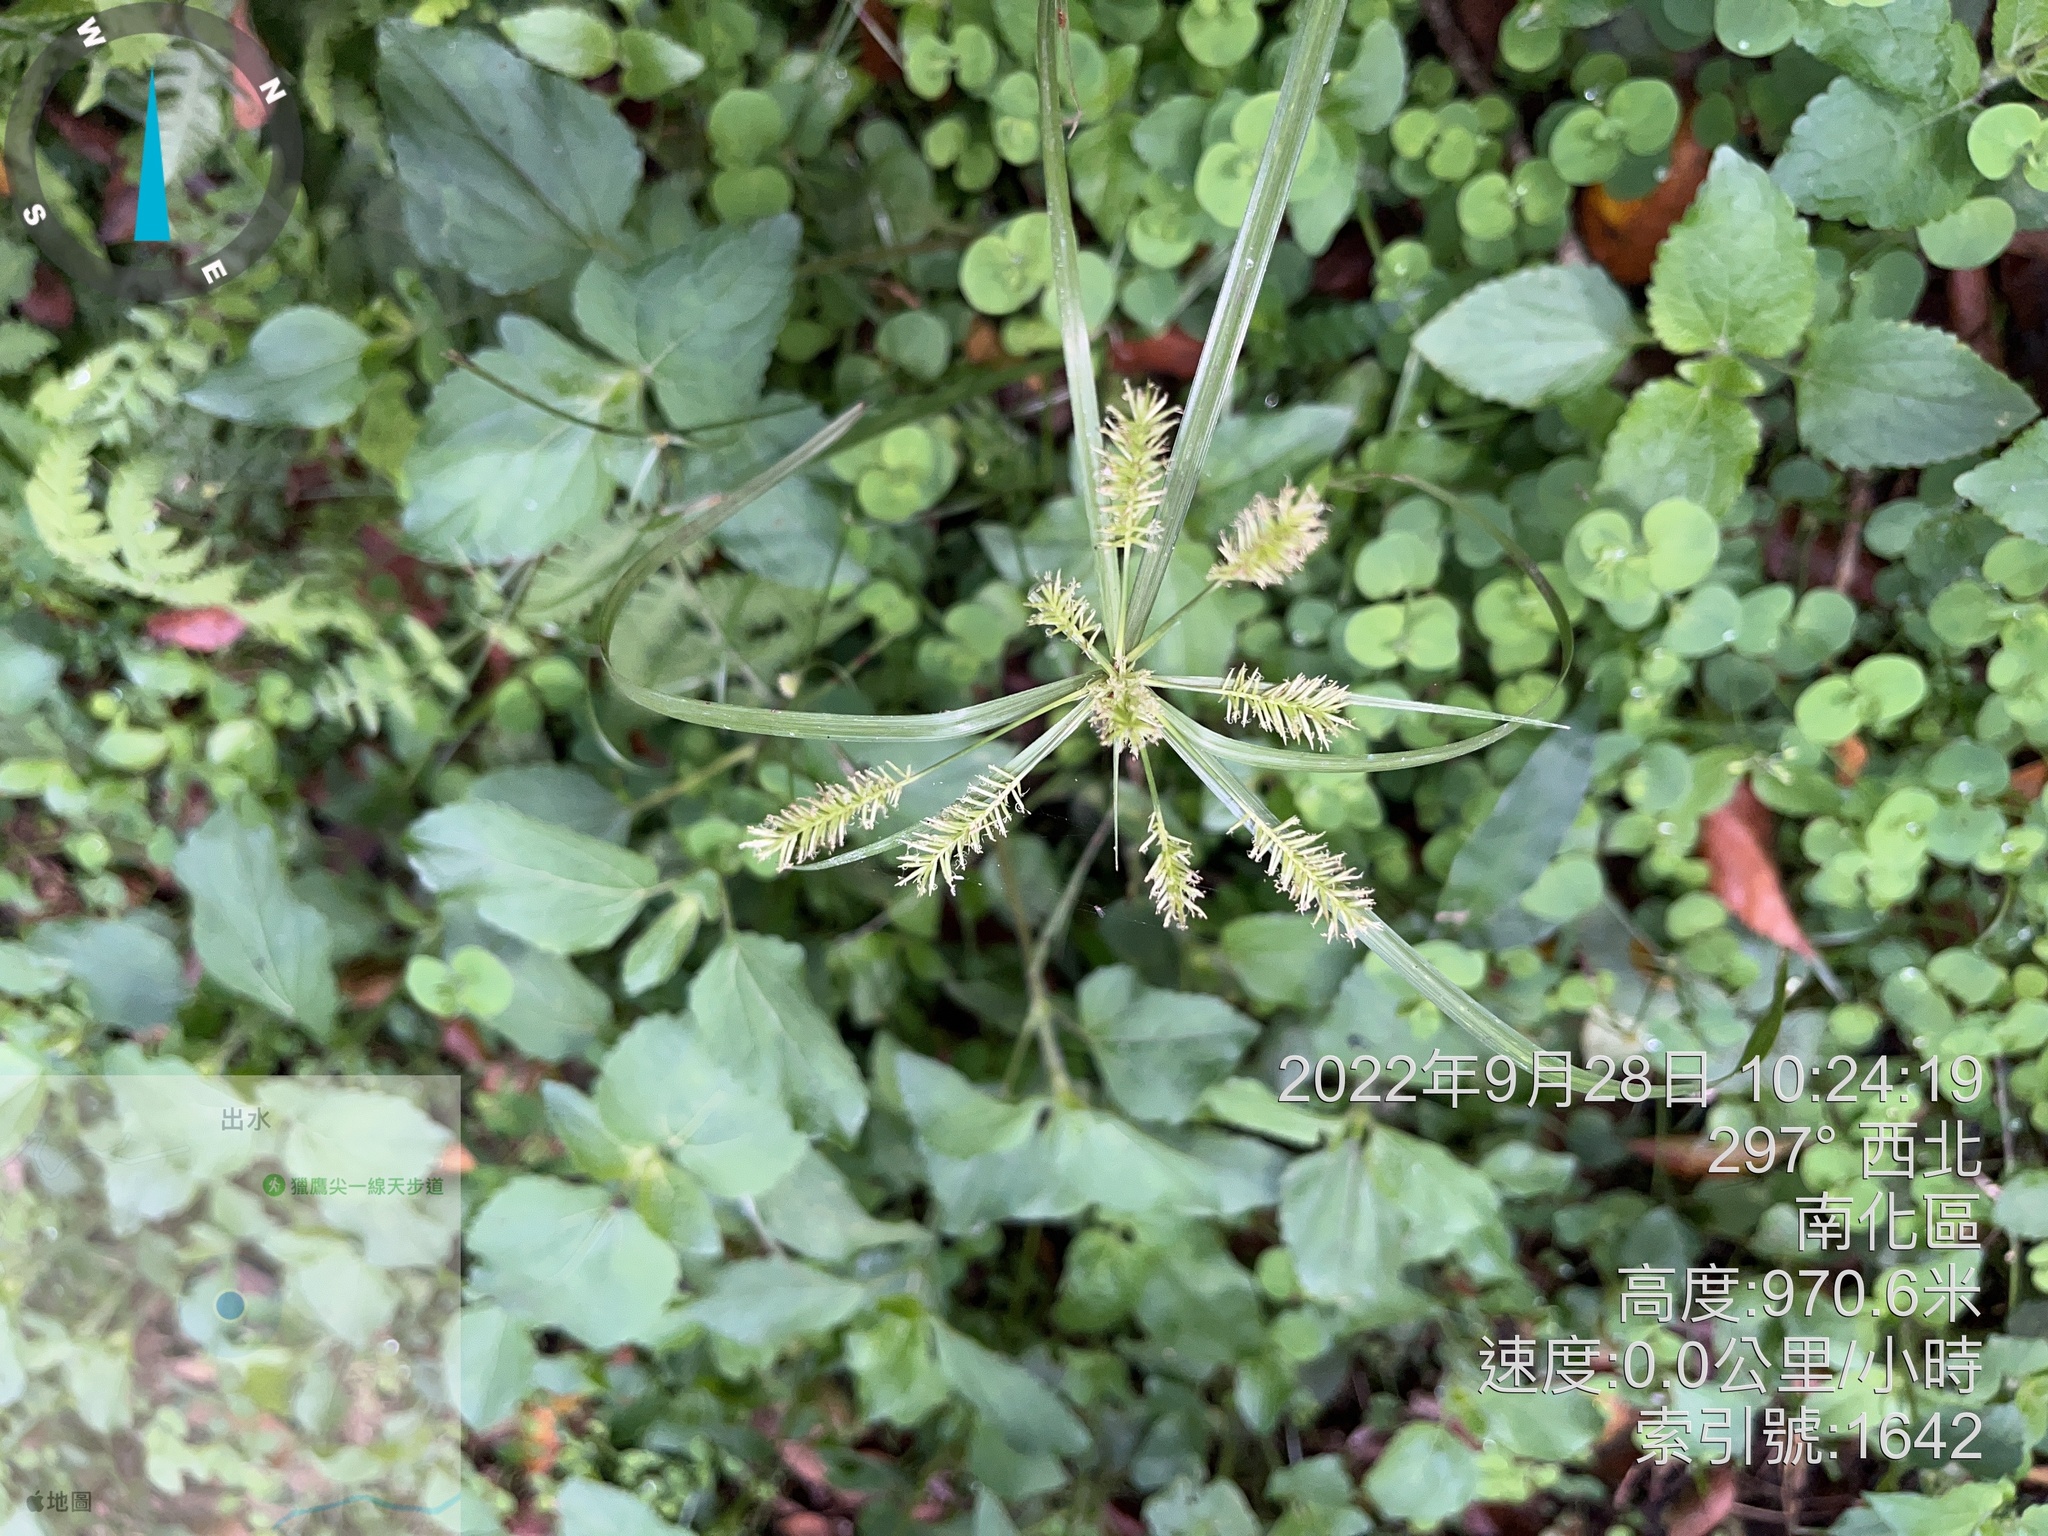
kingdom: Plantae
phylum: Tracheophyta
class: Liliopsida
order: Poales
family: Cyperaceae
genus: Cyperus
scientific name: Cyperus cyperinus
